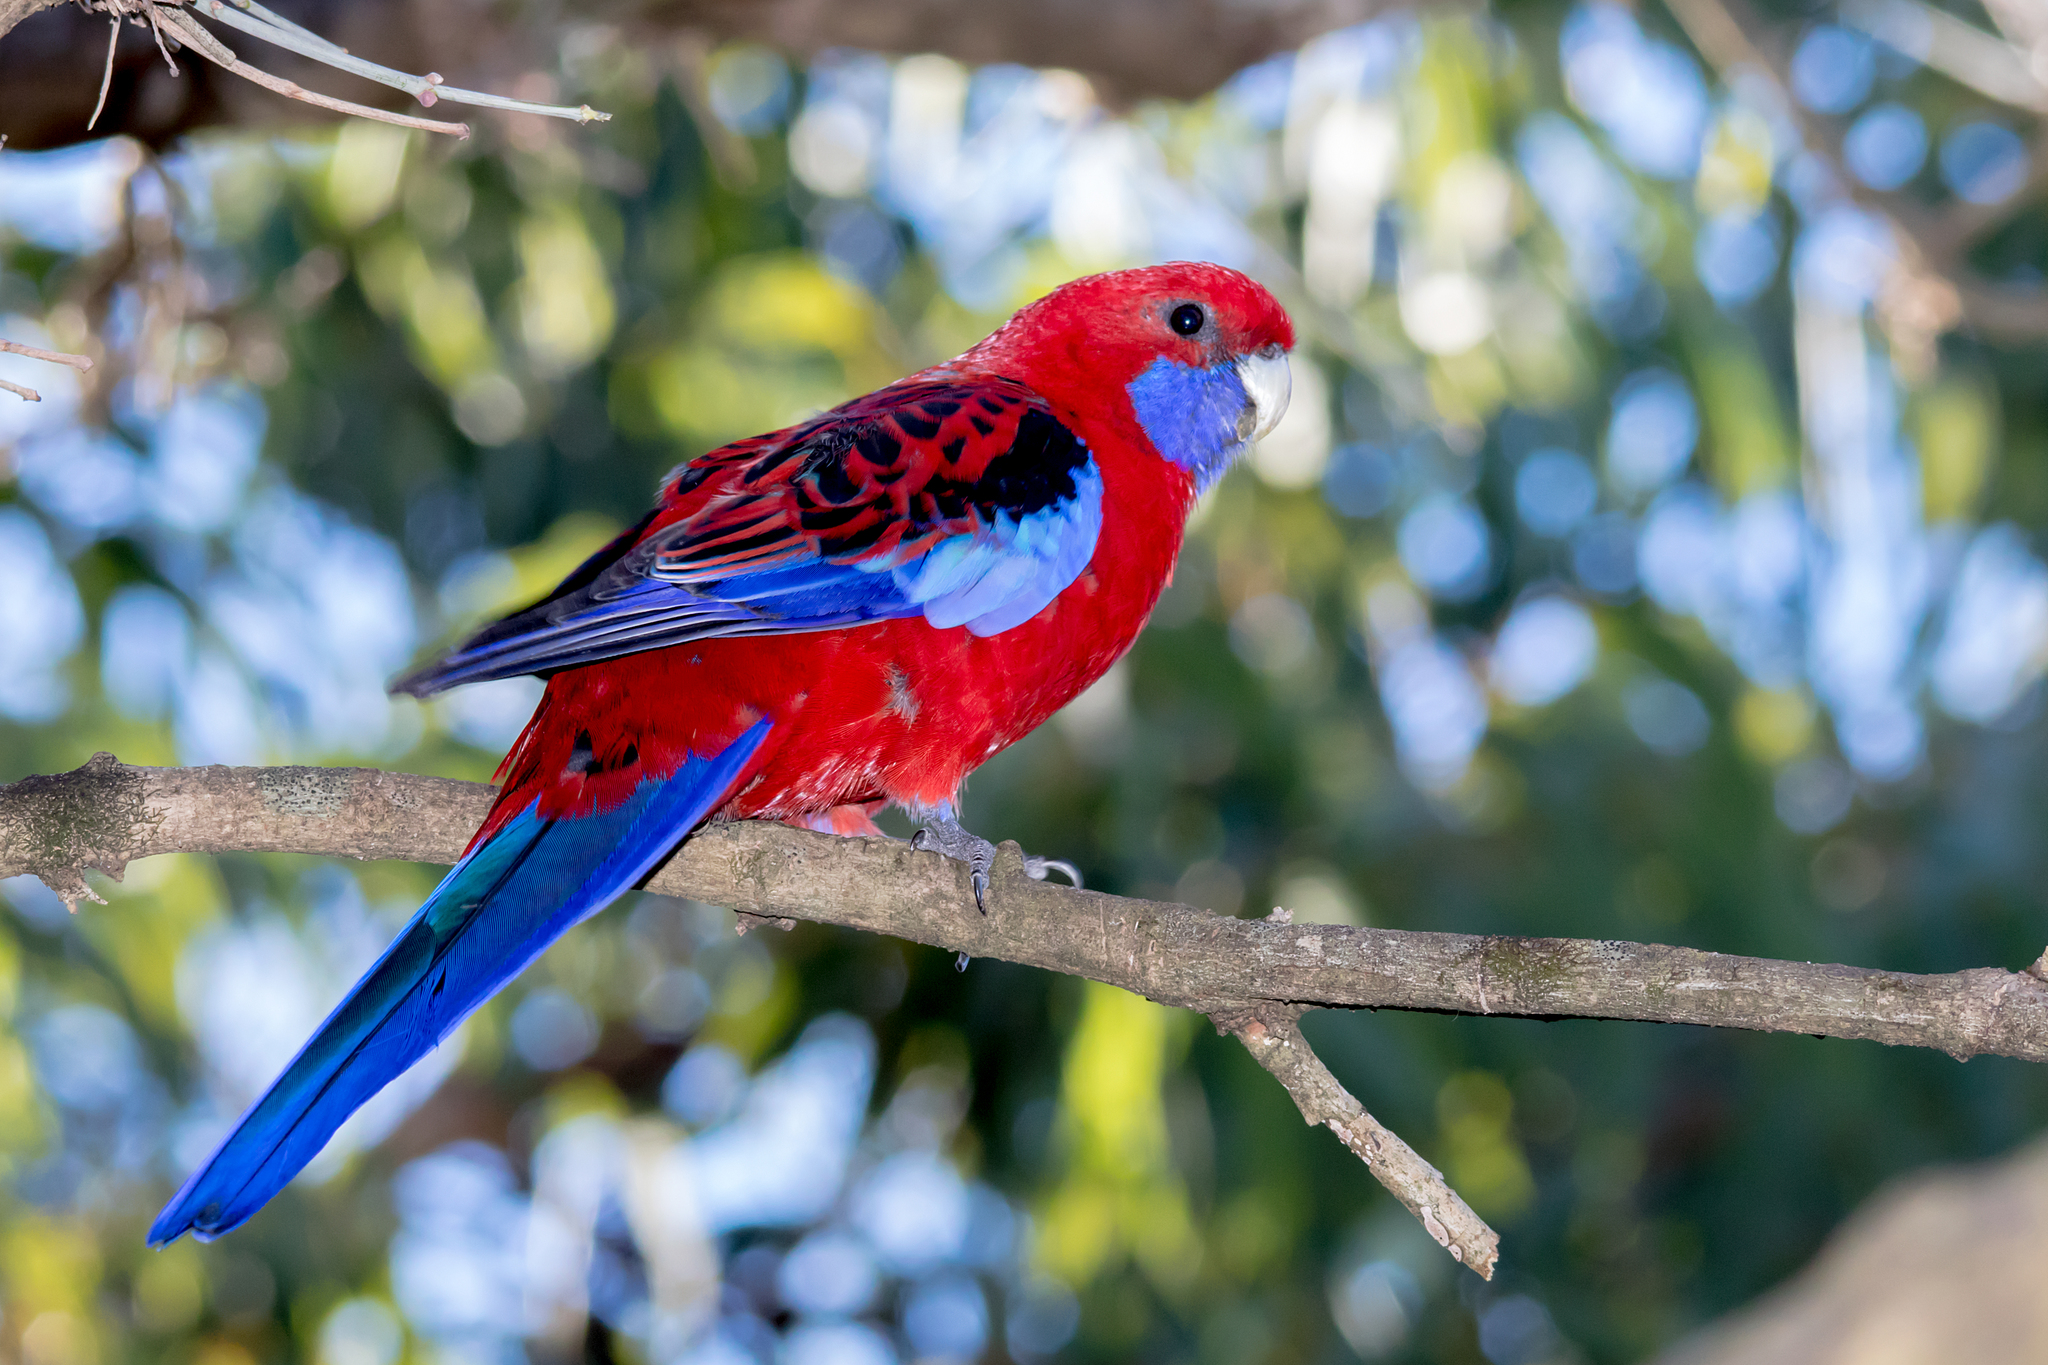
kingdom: Animalia
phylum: Chordata
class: Aves
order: Psittaciformes
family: Psittacidae
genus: Platycercus
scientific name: Platycercus elegans
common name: Crimson rosella
